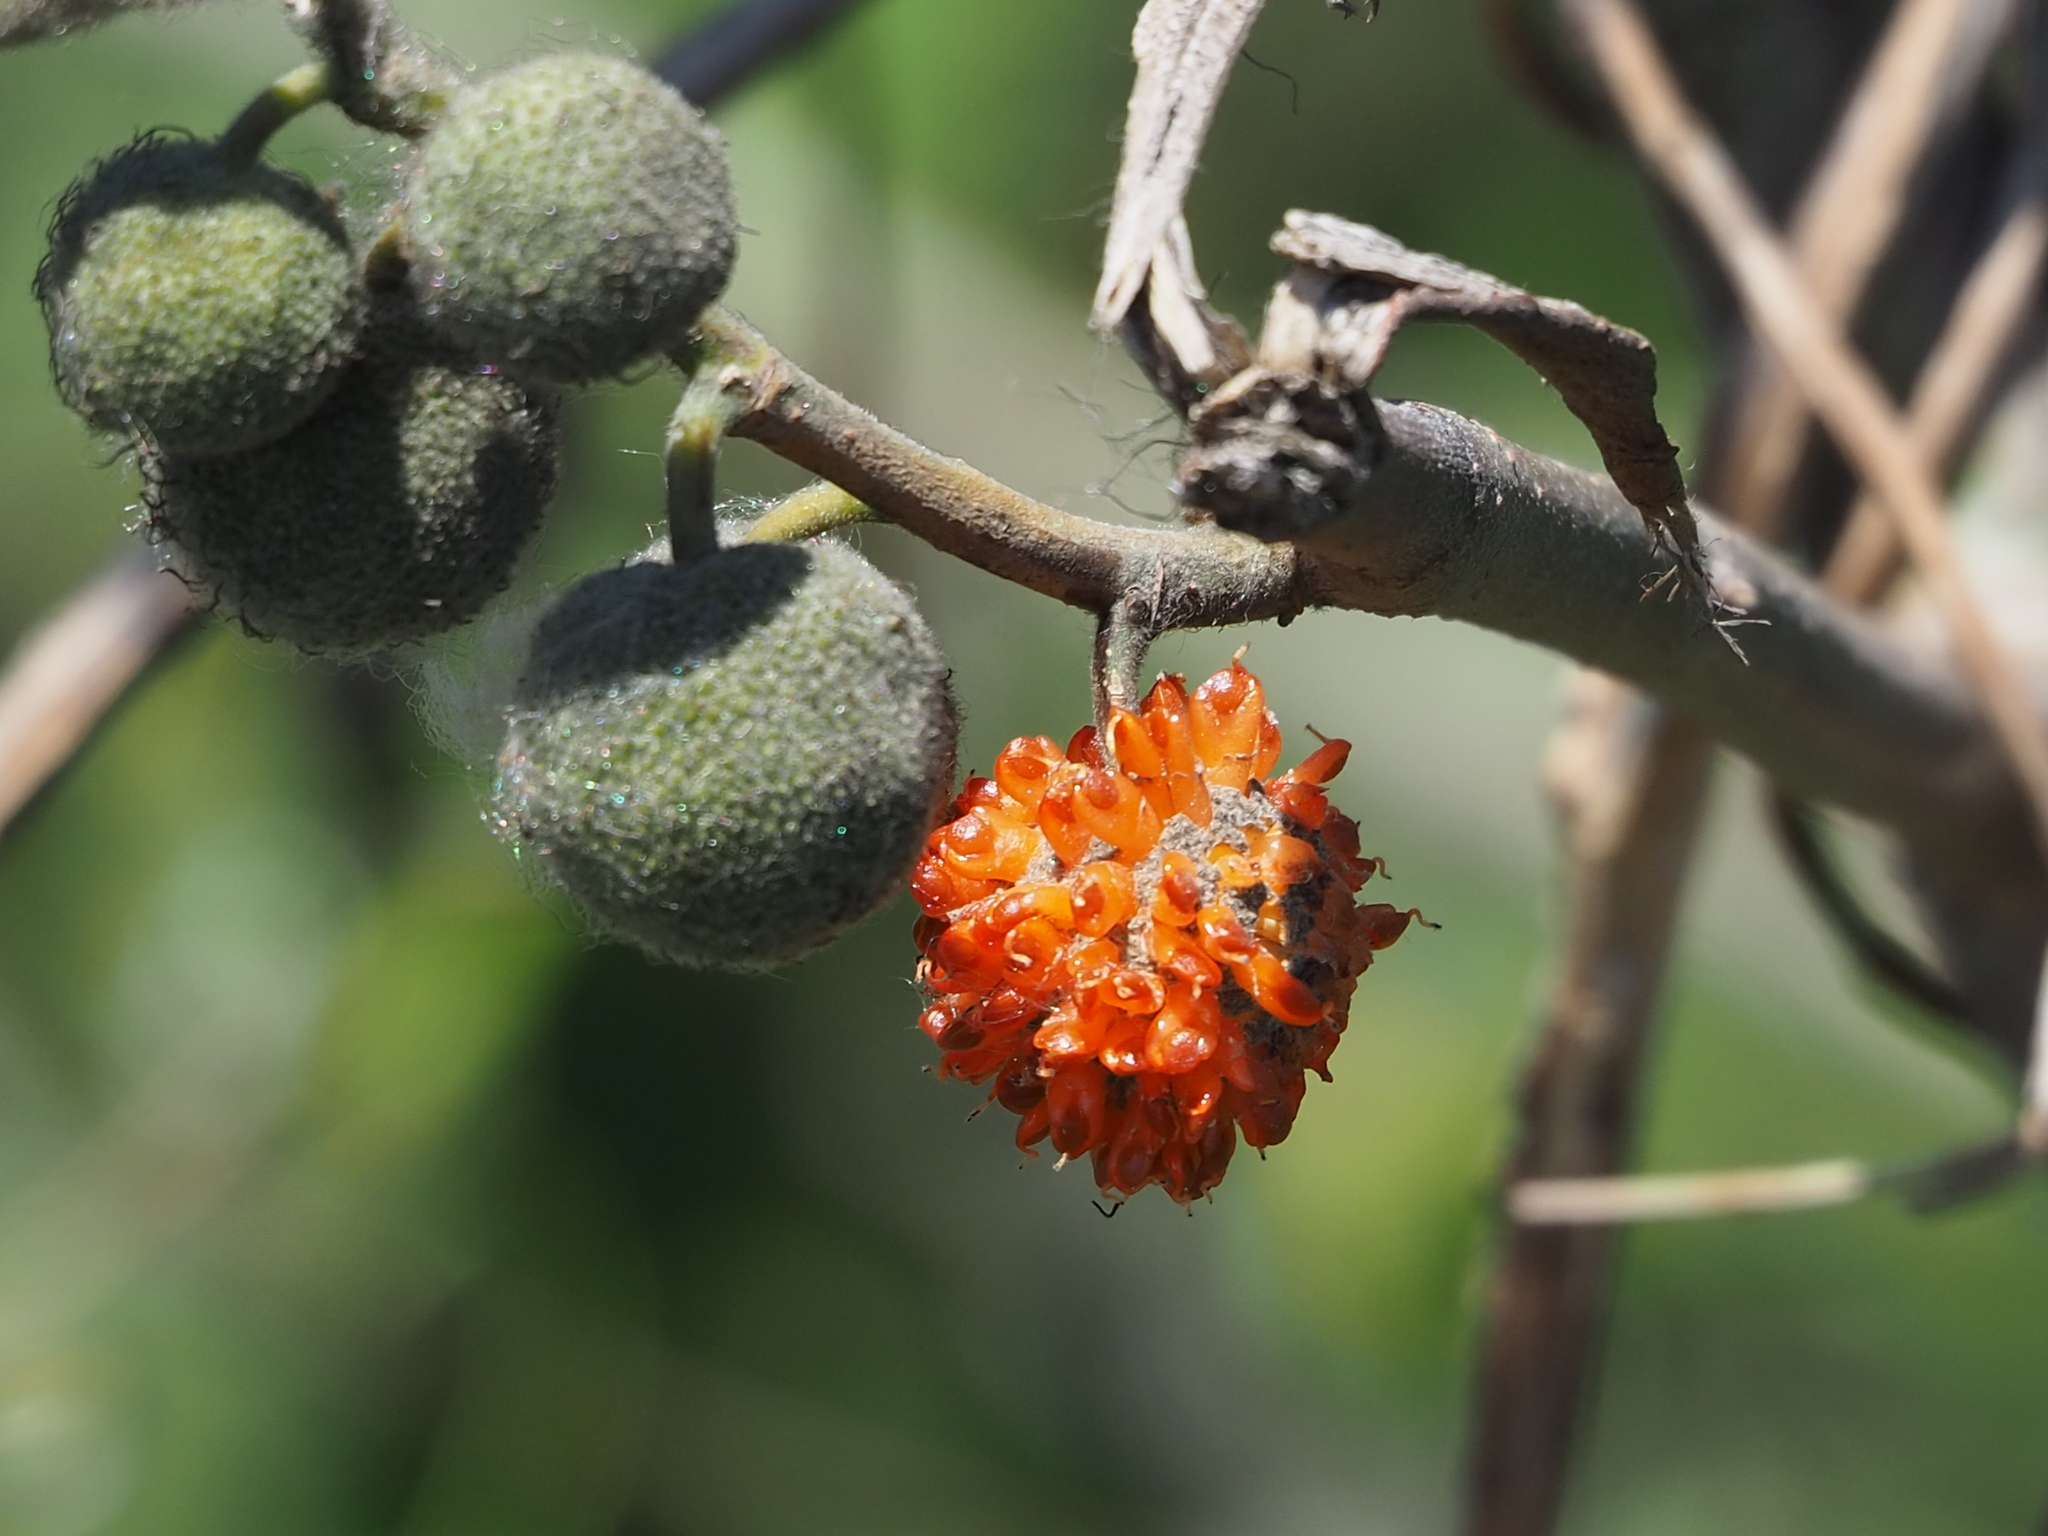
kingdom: Plantae
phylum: Tracheophyta
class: Magnoliopsida
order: Rosales
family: Moraceae
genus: Broussonetia
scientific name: Broussonetia papyrifera
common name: Paper mulberry
